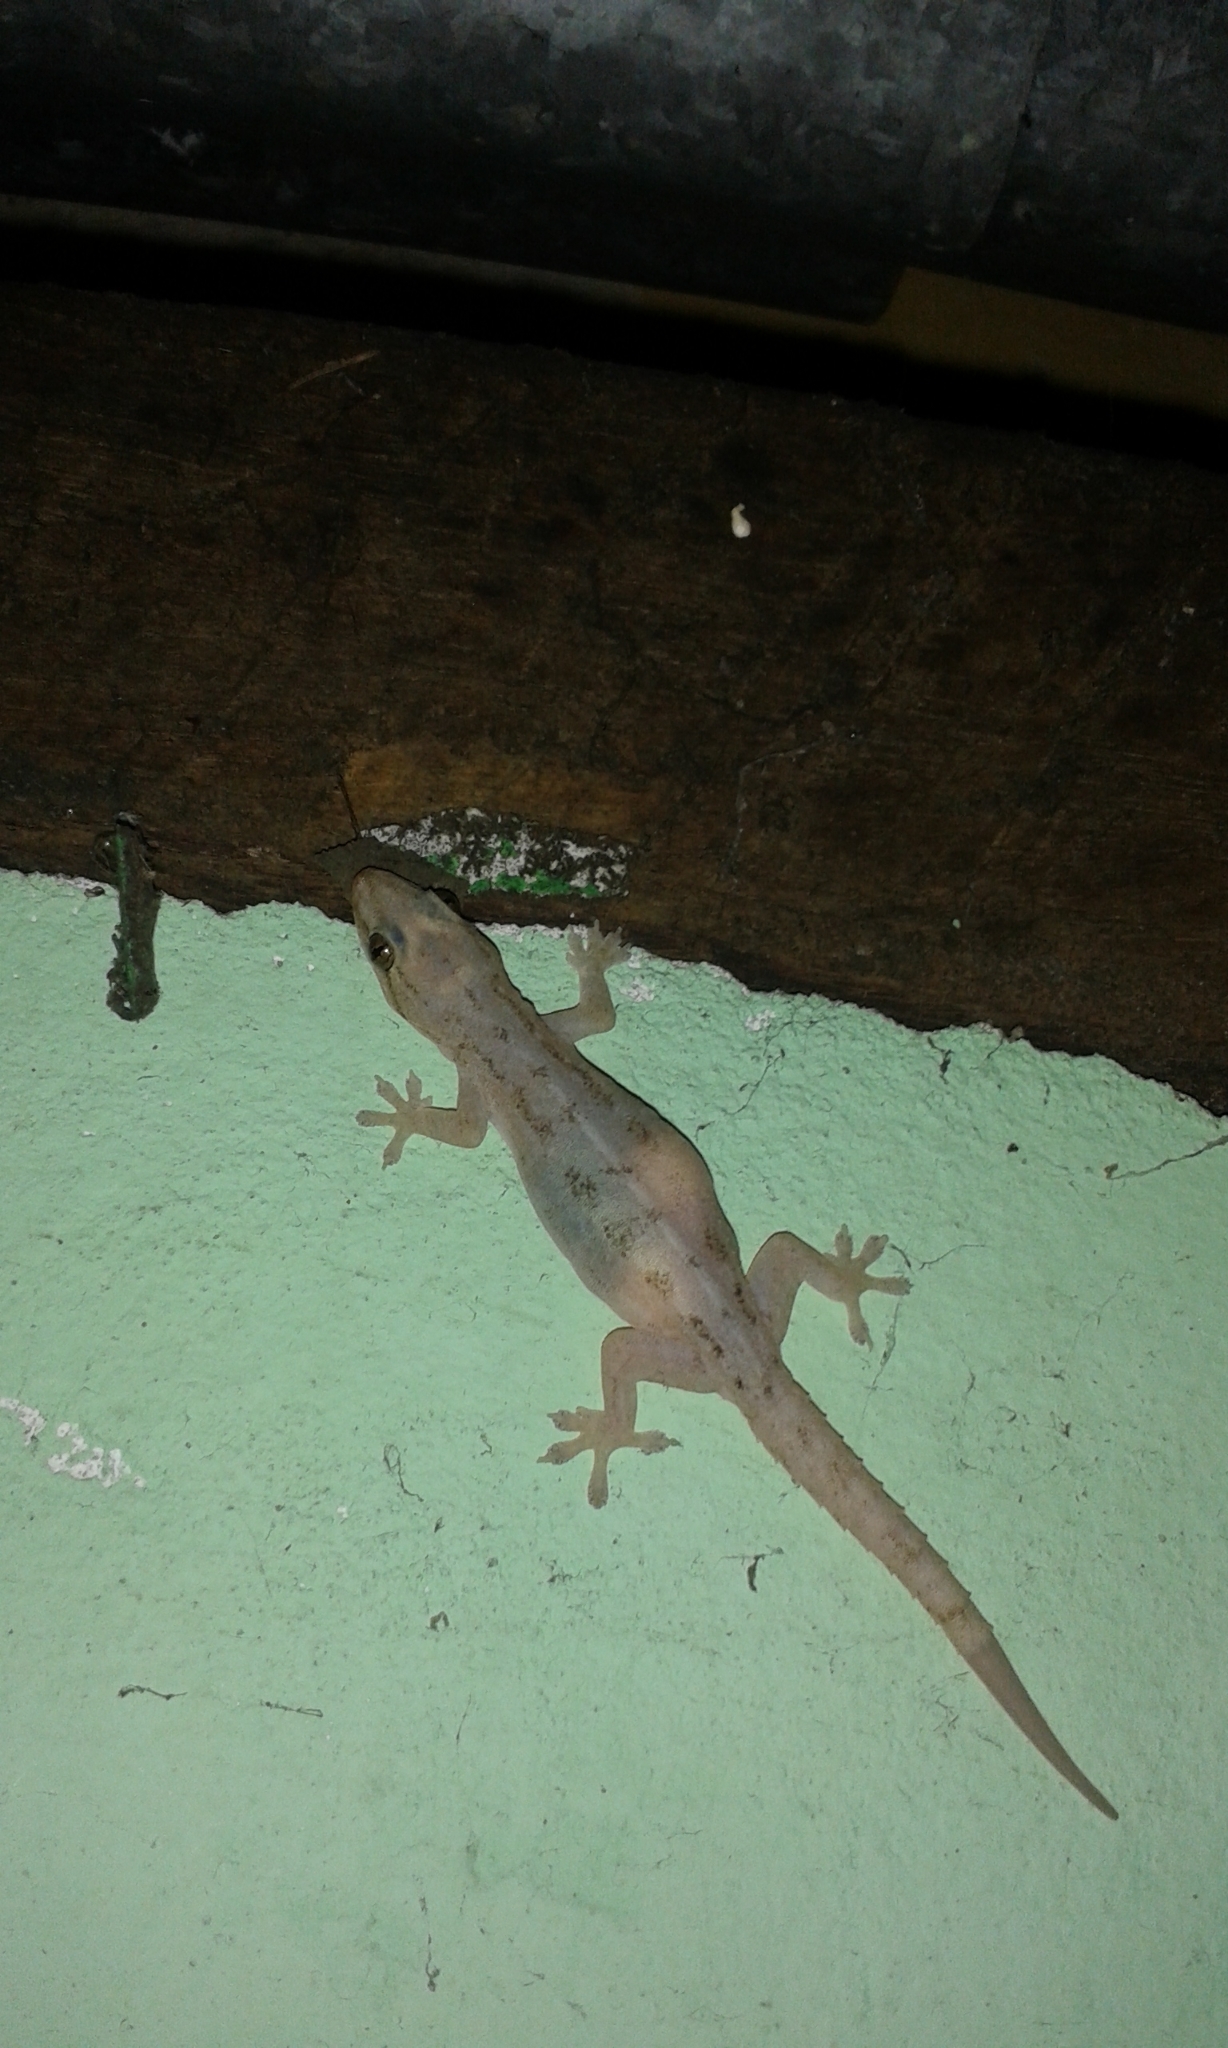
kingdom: Animalia
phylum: Chordata
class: Squamata
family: Gekkonidae
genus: Hemidactylus
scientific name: Hemidactylus frenatus
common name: Common house gecko
